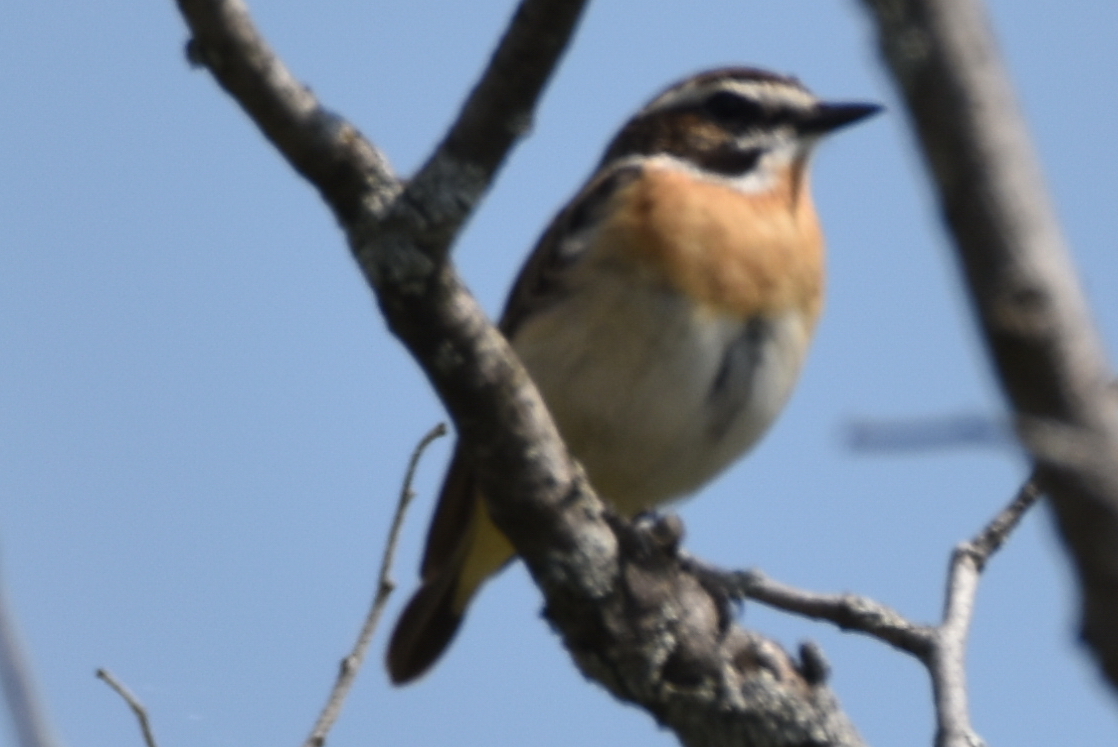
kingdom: Animalia
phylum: Chordata
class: Aves
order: Passeriformes
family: Muscicapidae
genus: Saxicola
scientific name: Saxicola rubetra
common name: Whinchat
